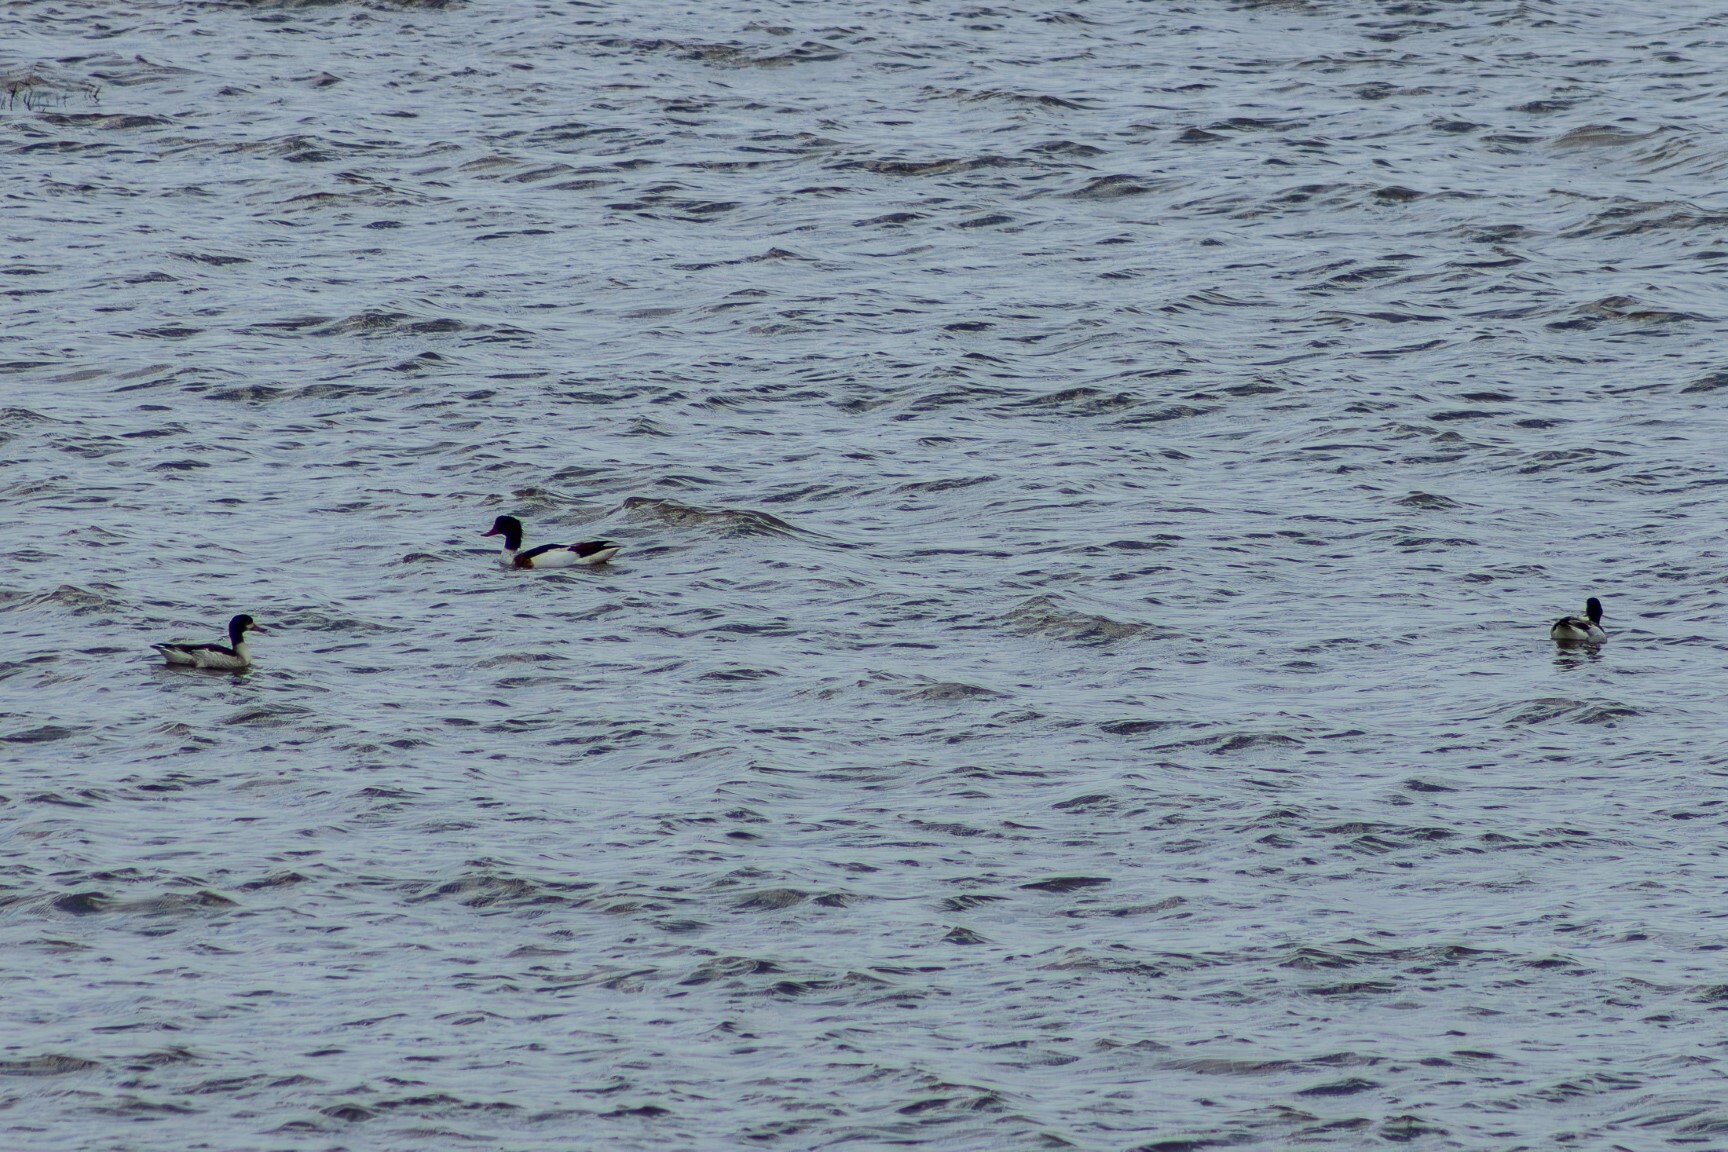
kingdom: Animalia
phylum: Chordata
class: Aves
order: Anseriformes
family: Anatidae
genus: Tadorna
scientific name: Tadorna tadorna
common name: Common shelduck
